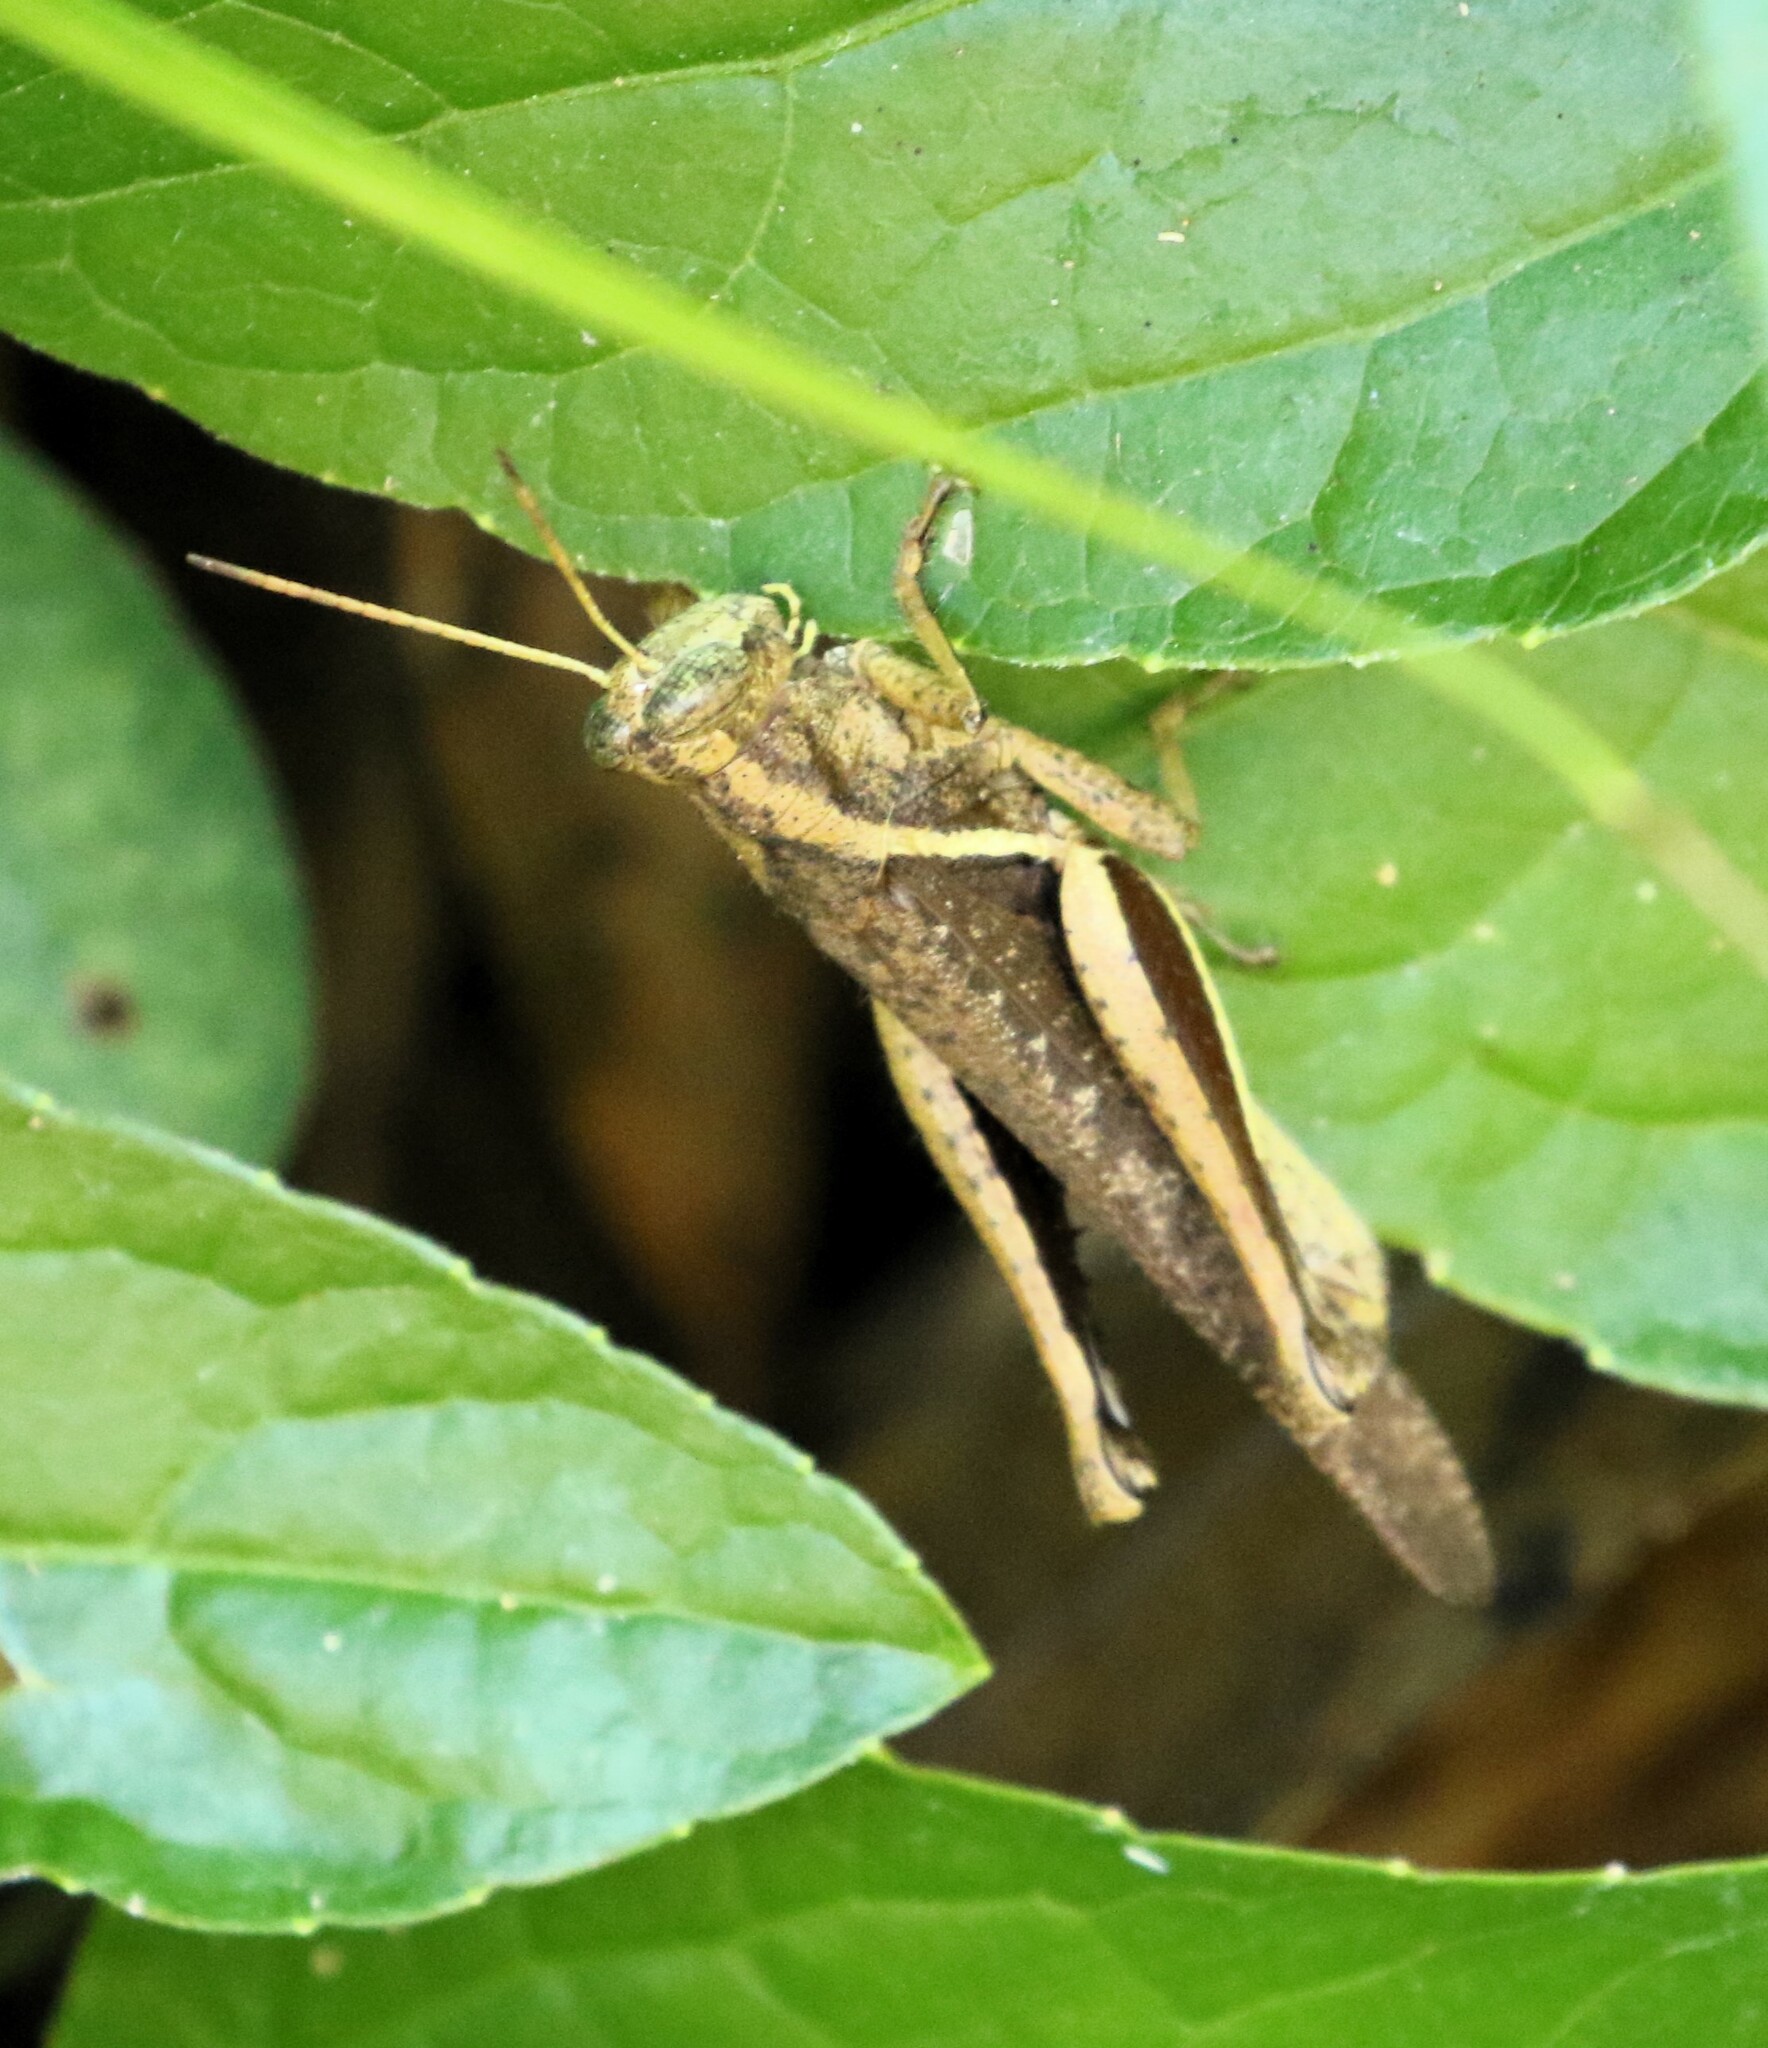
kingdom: Animalia
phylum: Arthropoda
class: Insecta
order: Orthoptera
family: Acrididae
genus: Abracris
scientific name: Abracris flavolineata
